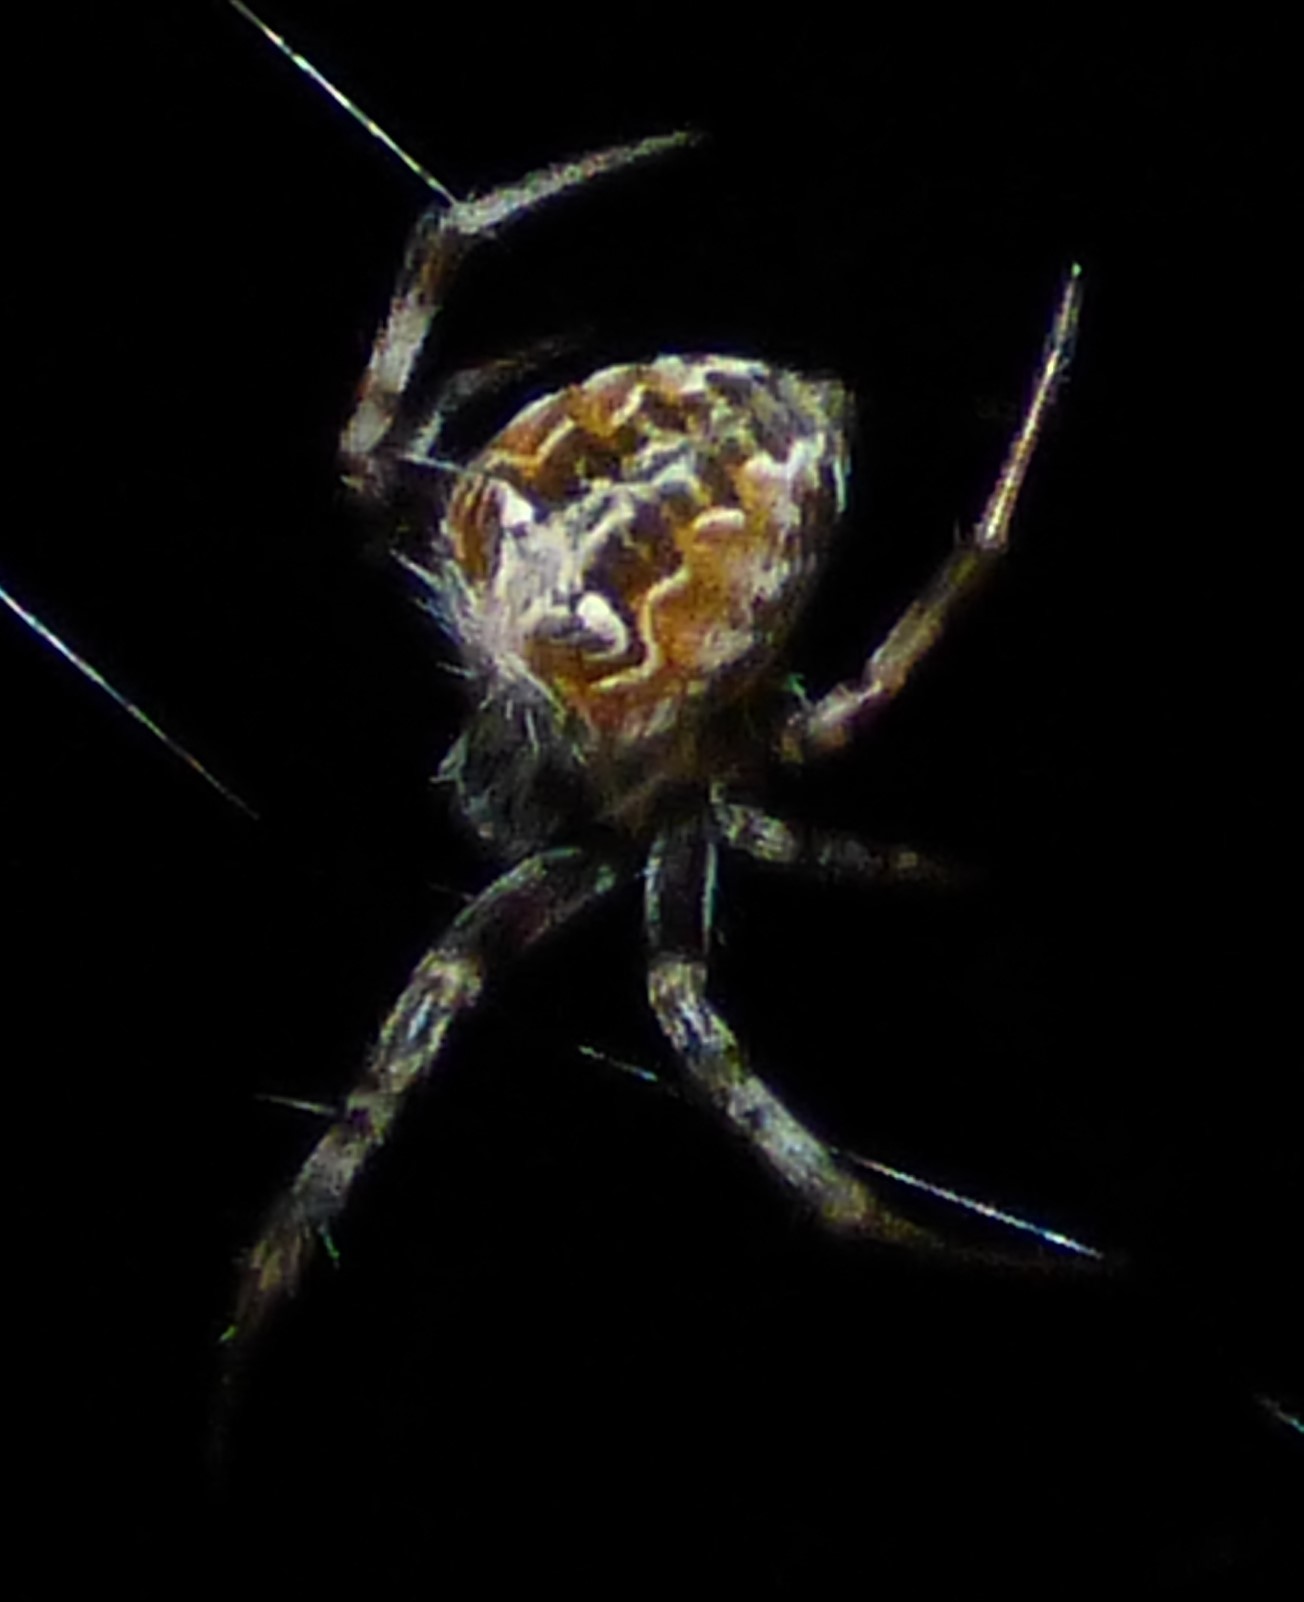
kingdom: Animalia
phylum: Arthropoda
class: Arachnida
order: Araneae
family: Araneidae
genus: Metepeira
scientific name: Metepeira labyrinthea
